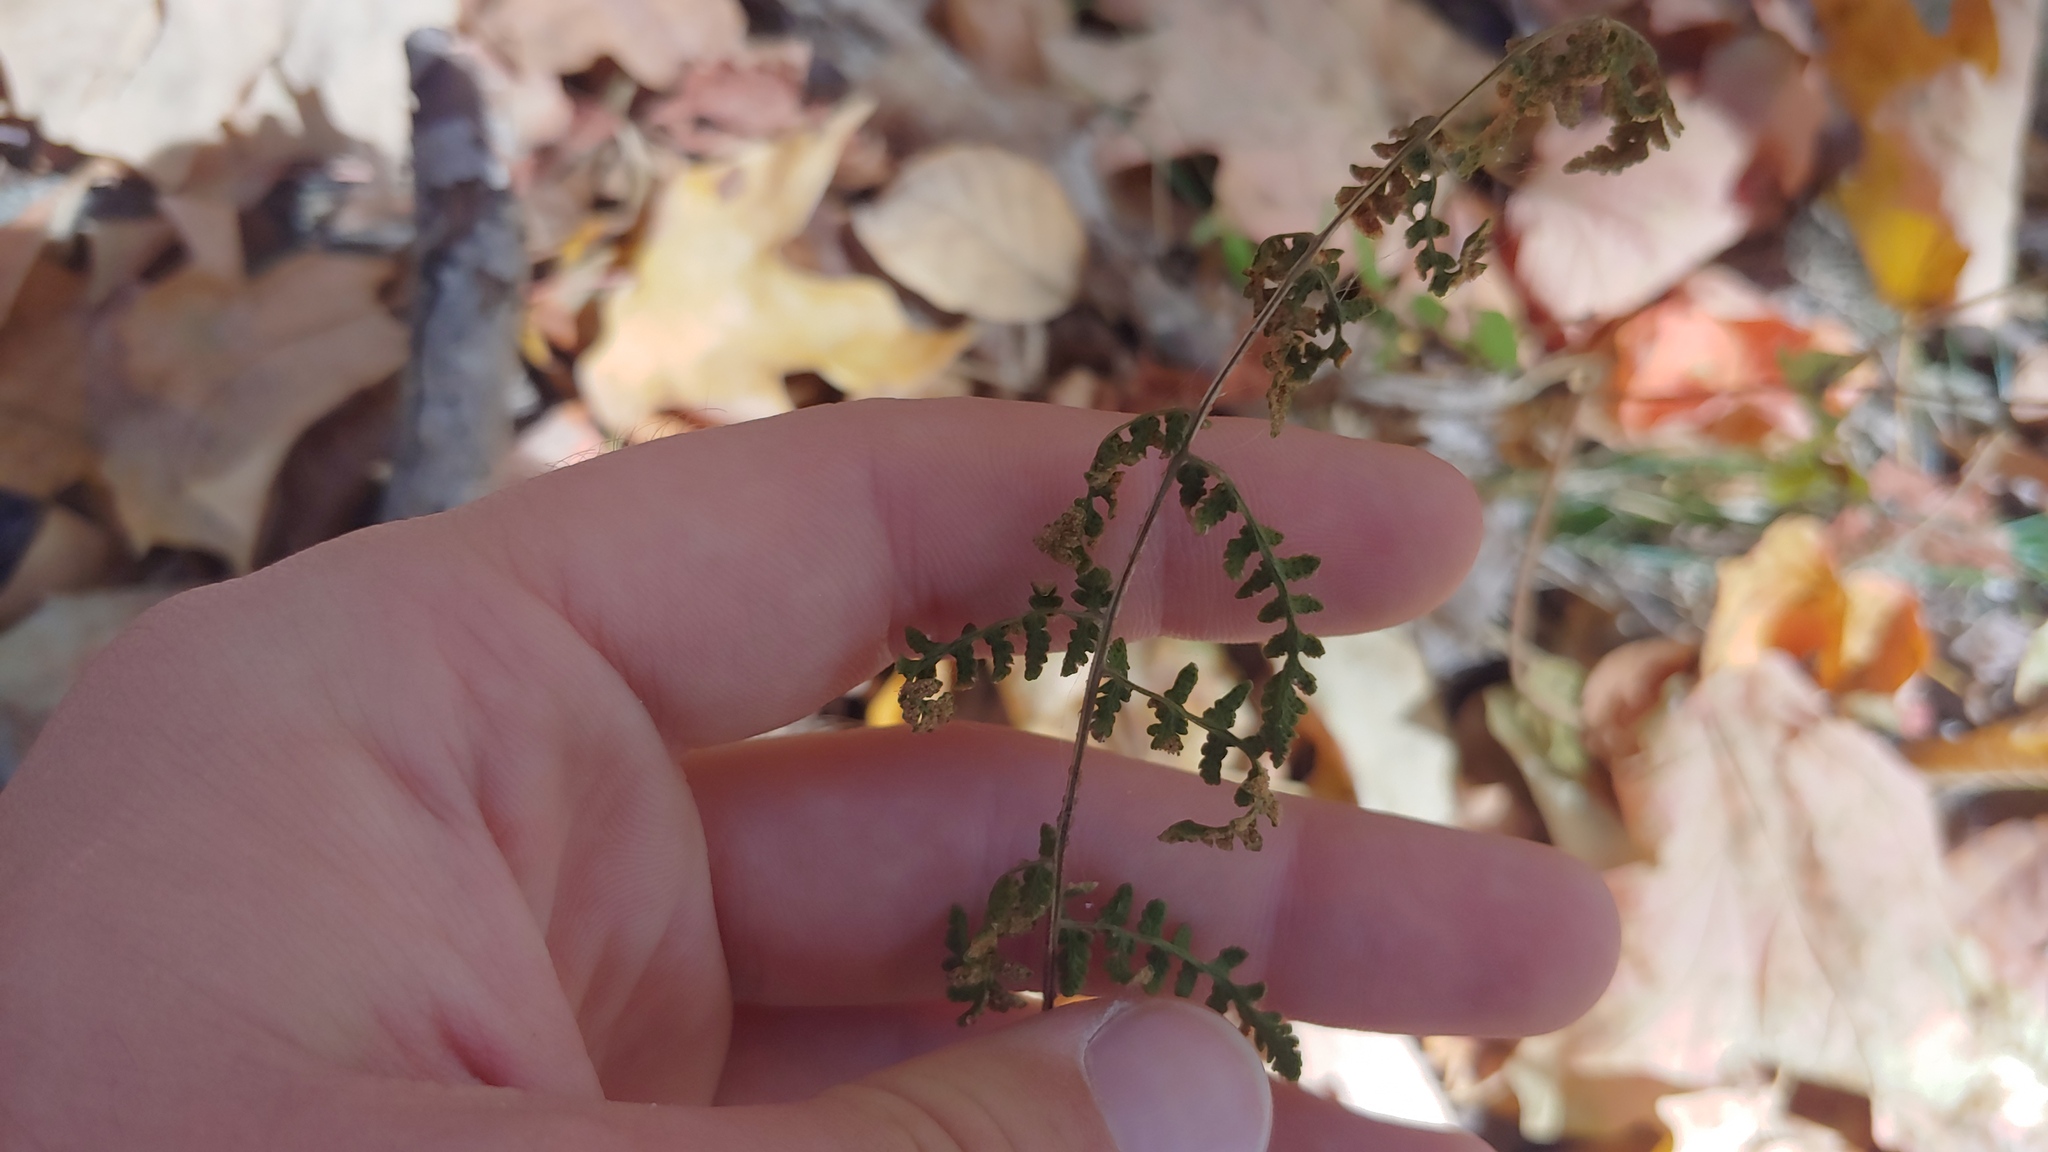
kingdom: Plantae
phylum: Tracheophyta
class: Polypodiopsida
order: Polypodiales
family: Woodsiaceae
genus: Physematium
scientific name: Physematium obtusum
